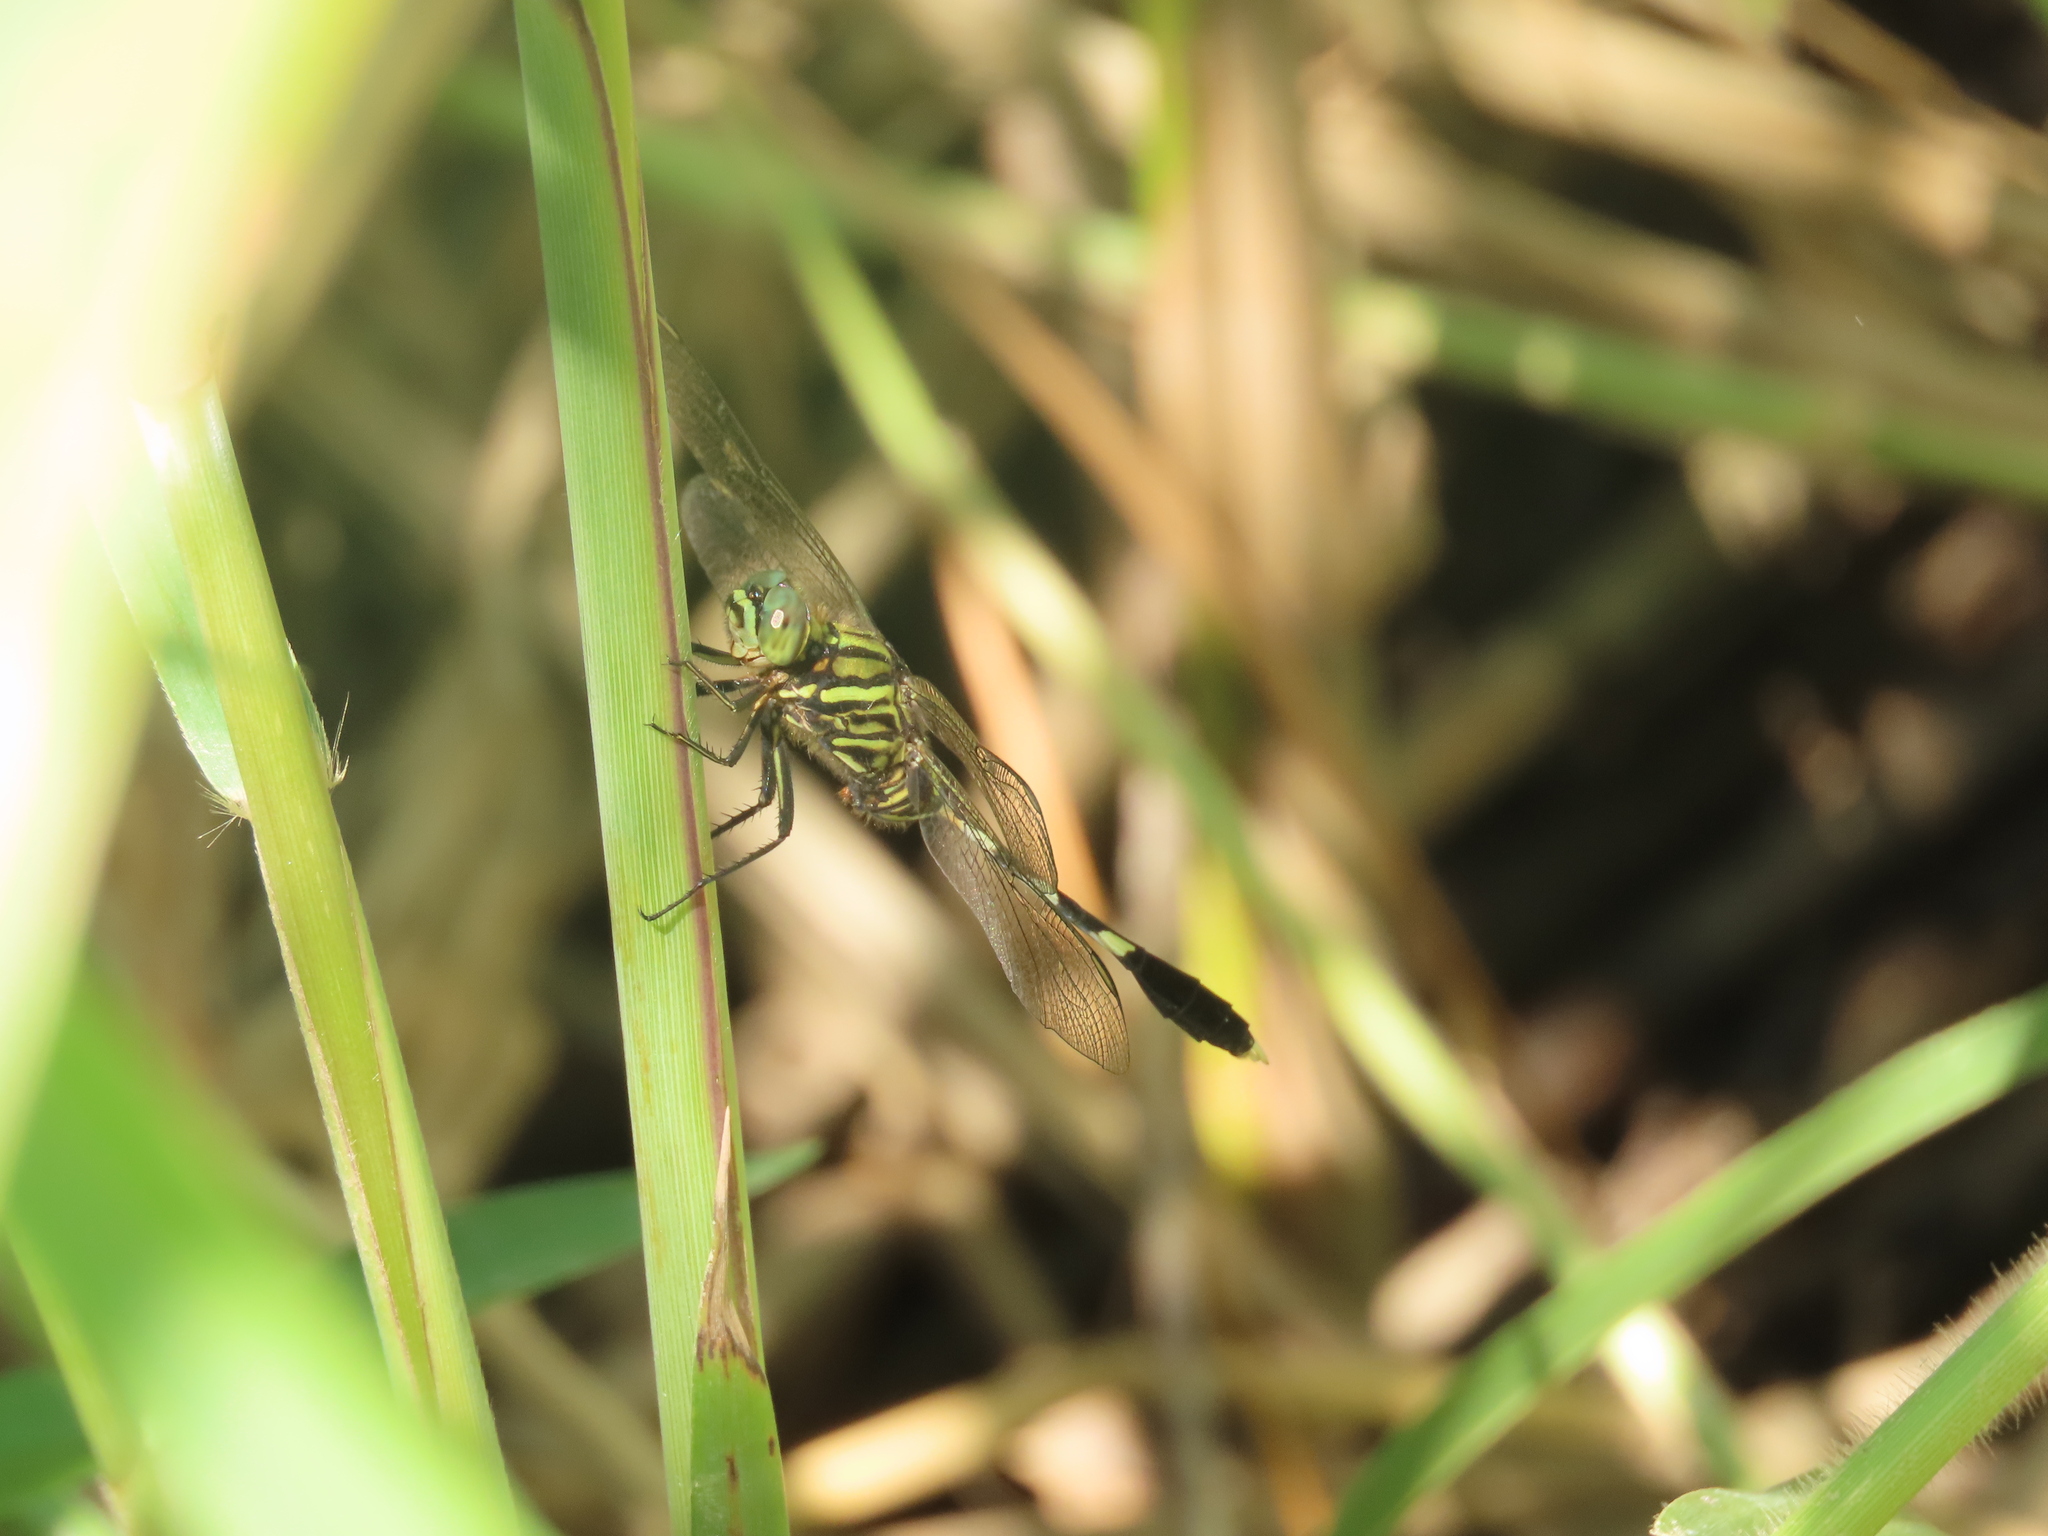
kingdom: Animalia
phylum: Arthropoda
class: Insecta
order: Odonata
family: Libellulidae
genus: Orthetrum
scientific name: Orthetrum sabina
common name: Slender skimmer
